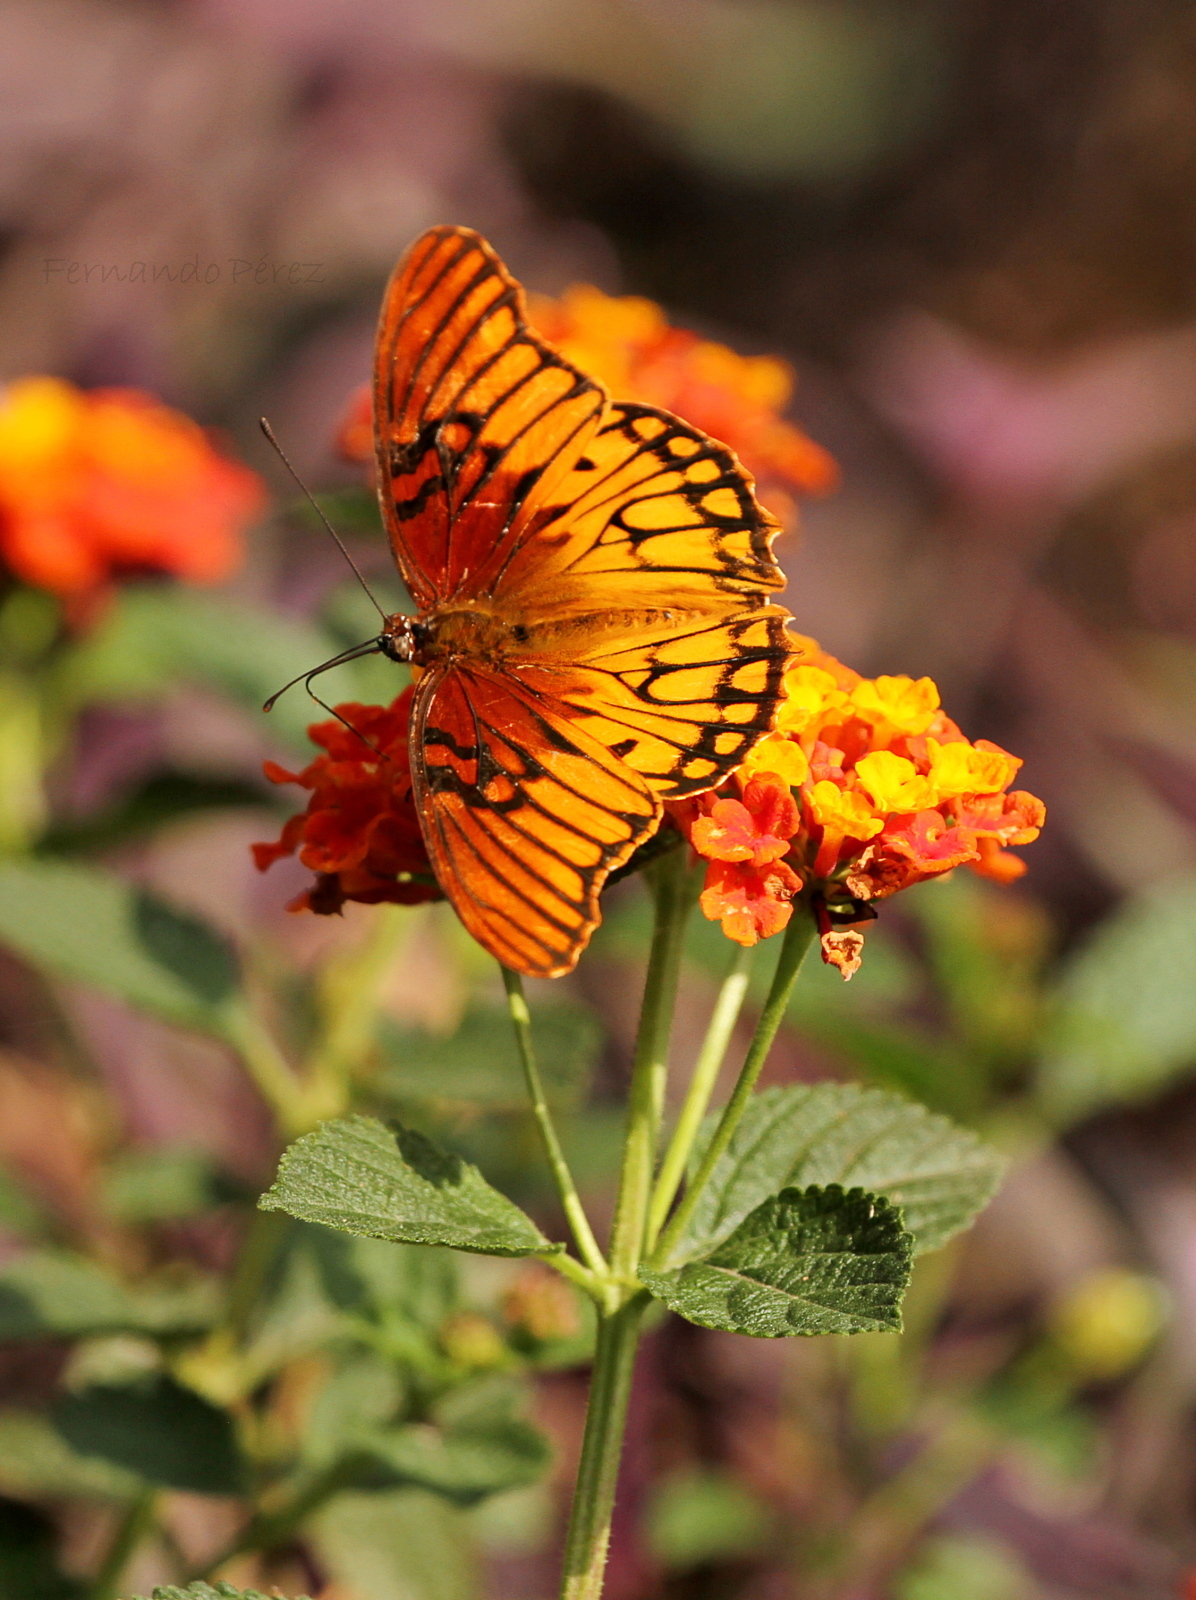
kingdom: Animalia
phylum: Arthropoda
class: Insecta
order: Lepidoptera
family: Nymphalidae
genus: Dione
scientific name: Dione moneta
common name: Mexican silverspot
